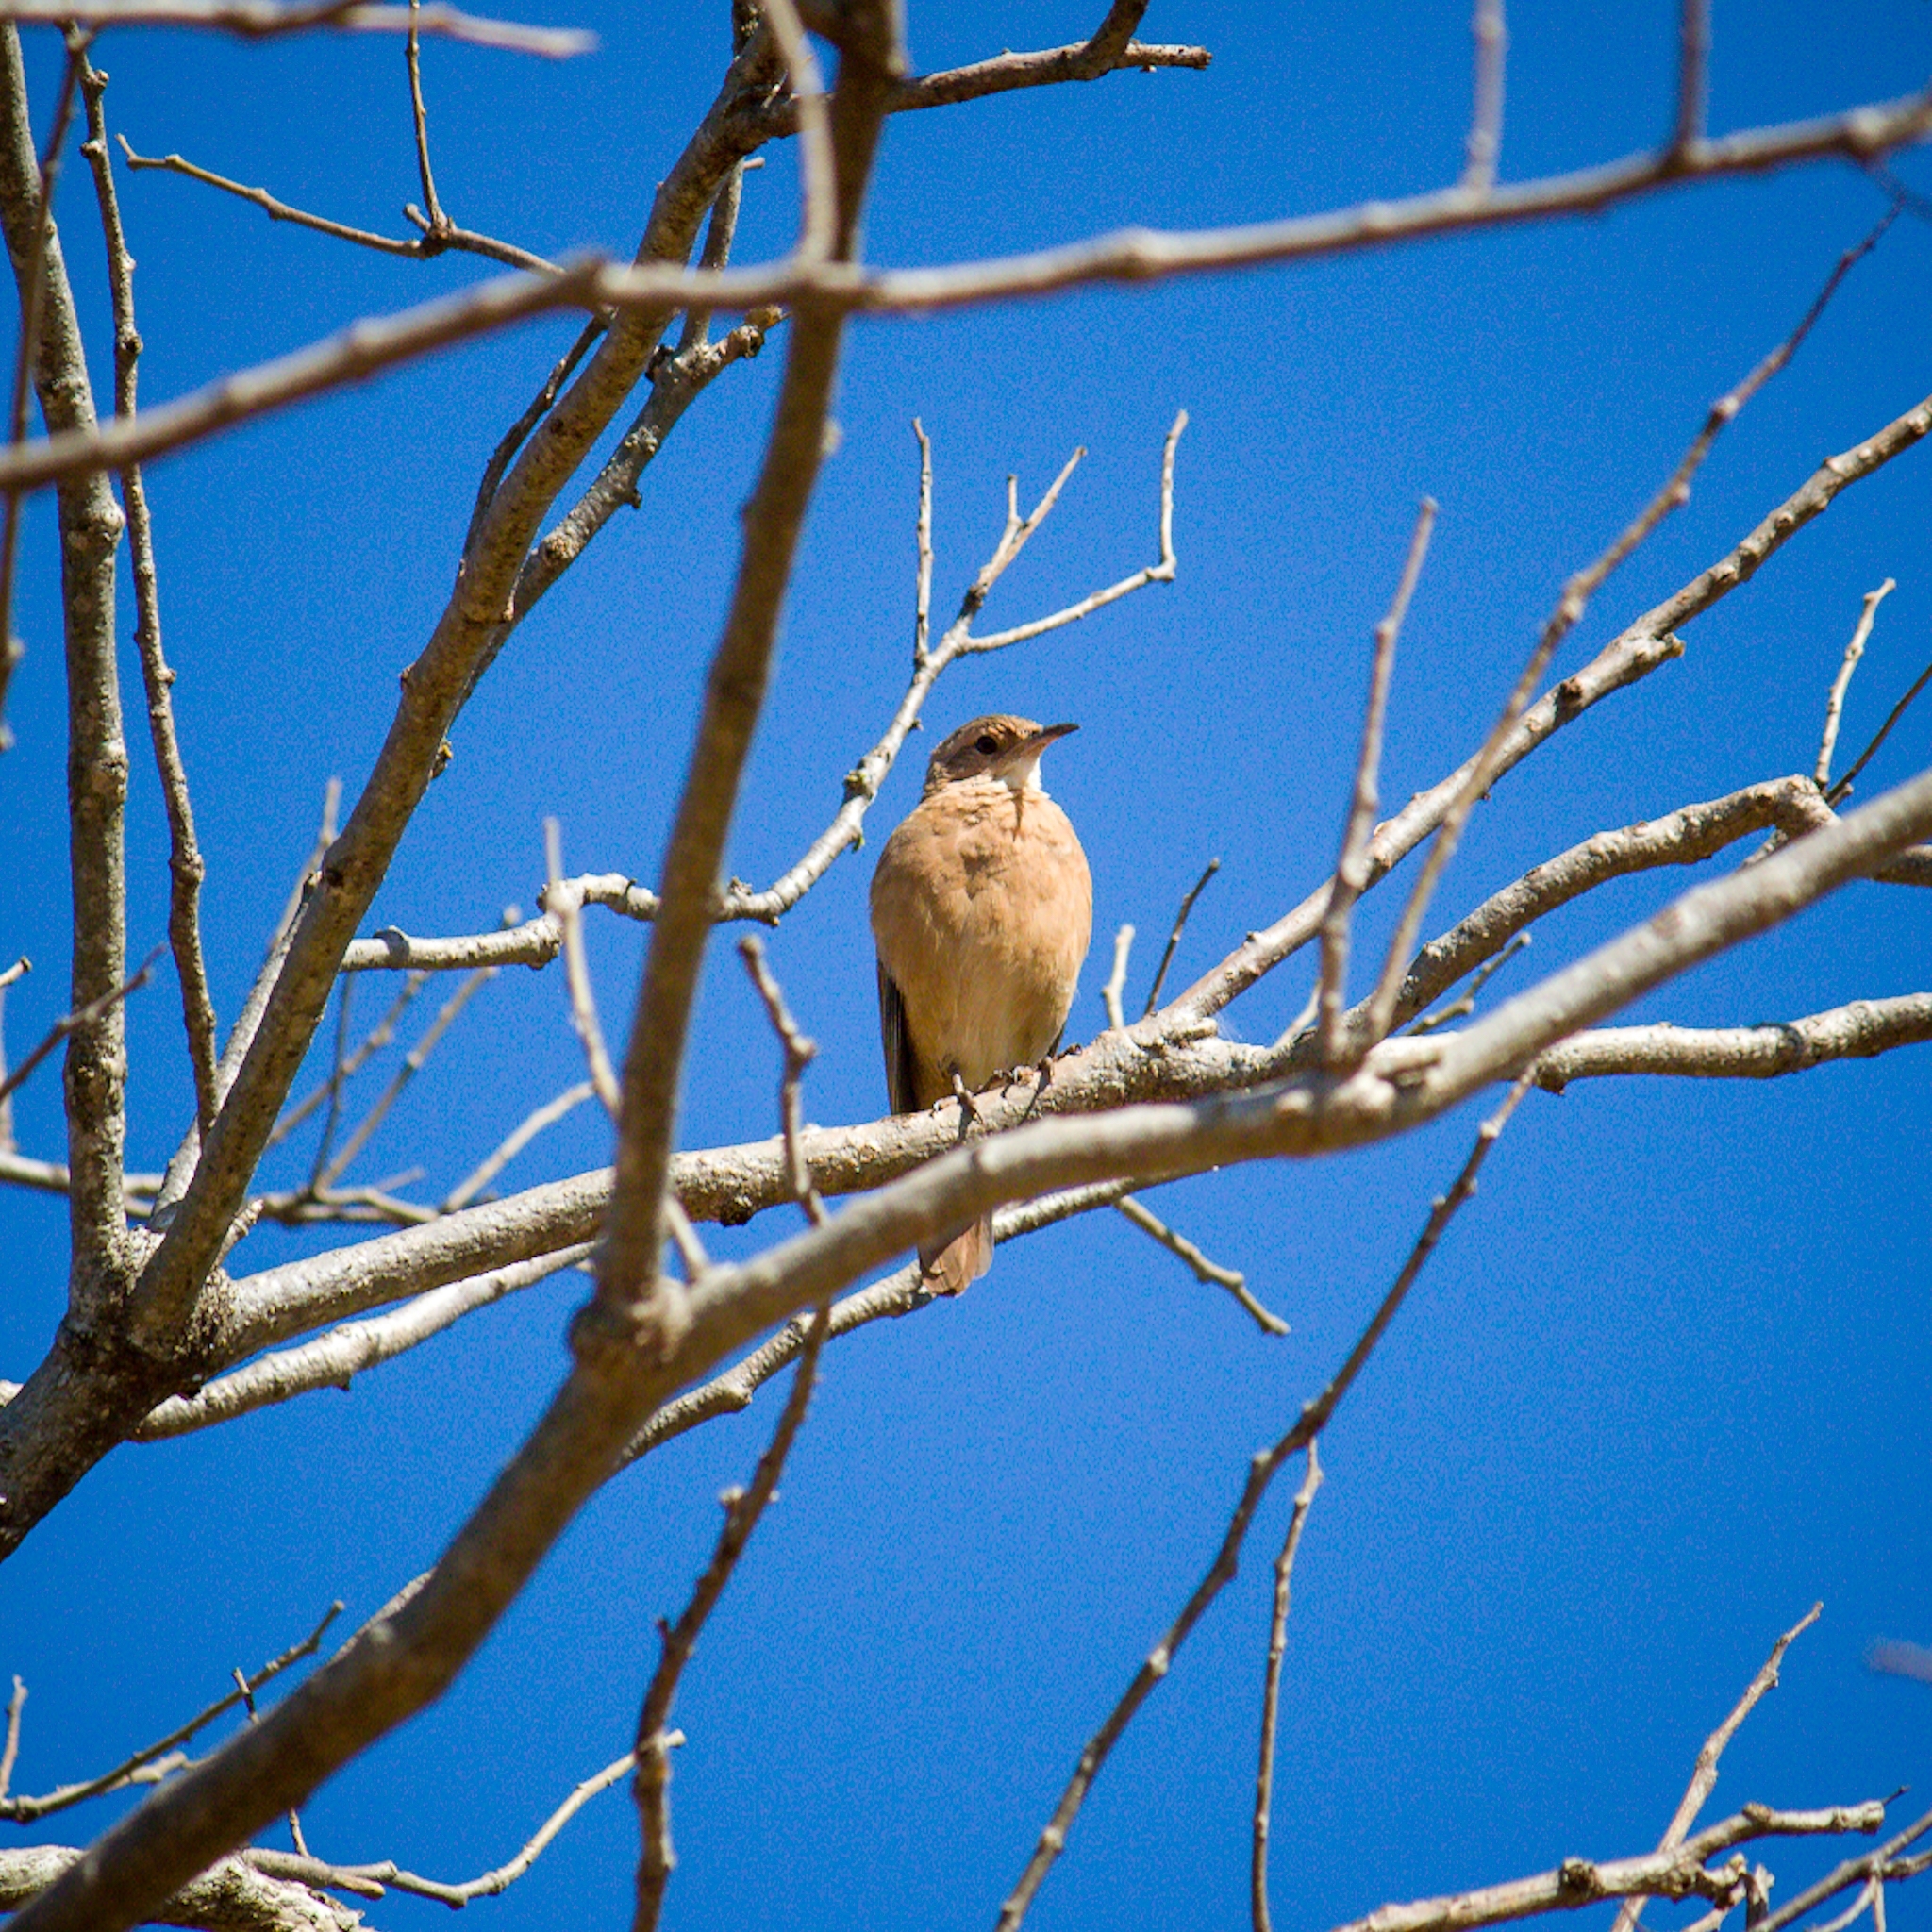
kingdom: Animalia
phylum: Chordata
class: Aves
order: Passeriformes
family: Furnariidae
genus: Furnarius
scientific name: Furnarius rufus
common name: Rufous hornero
